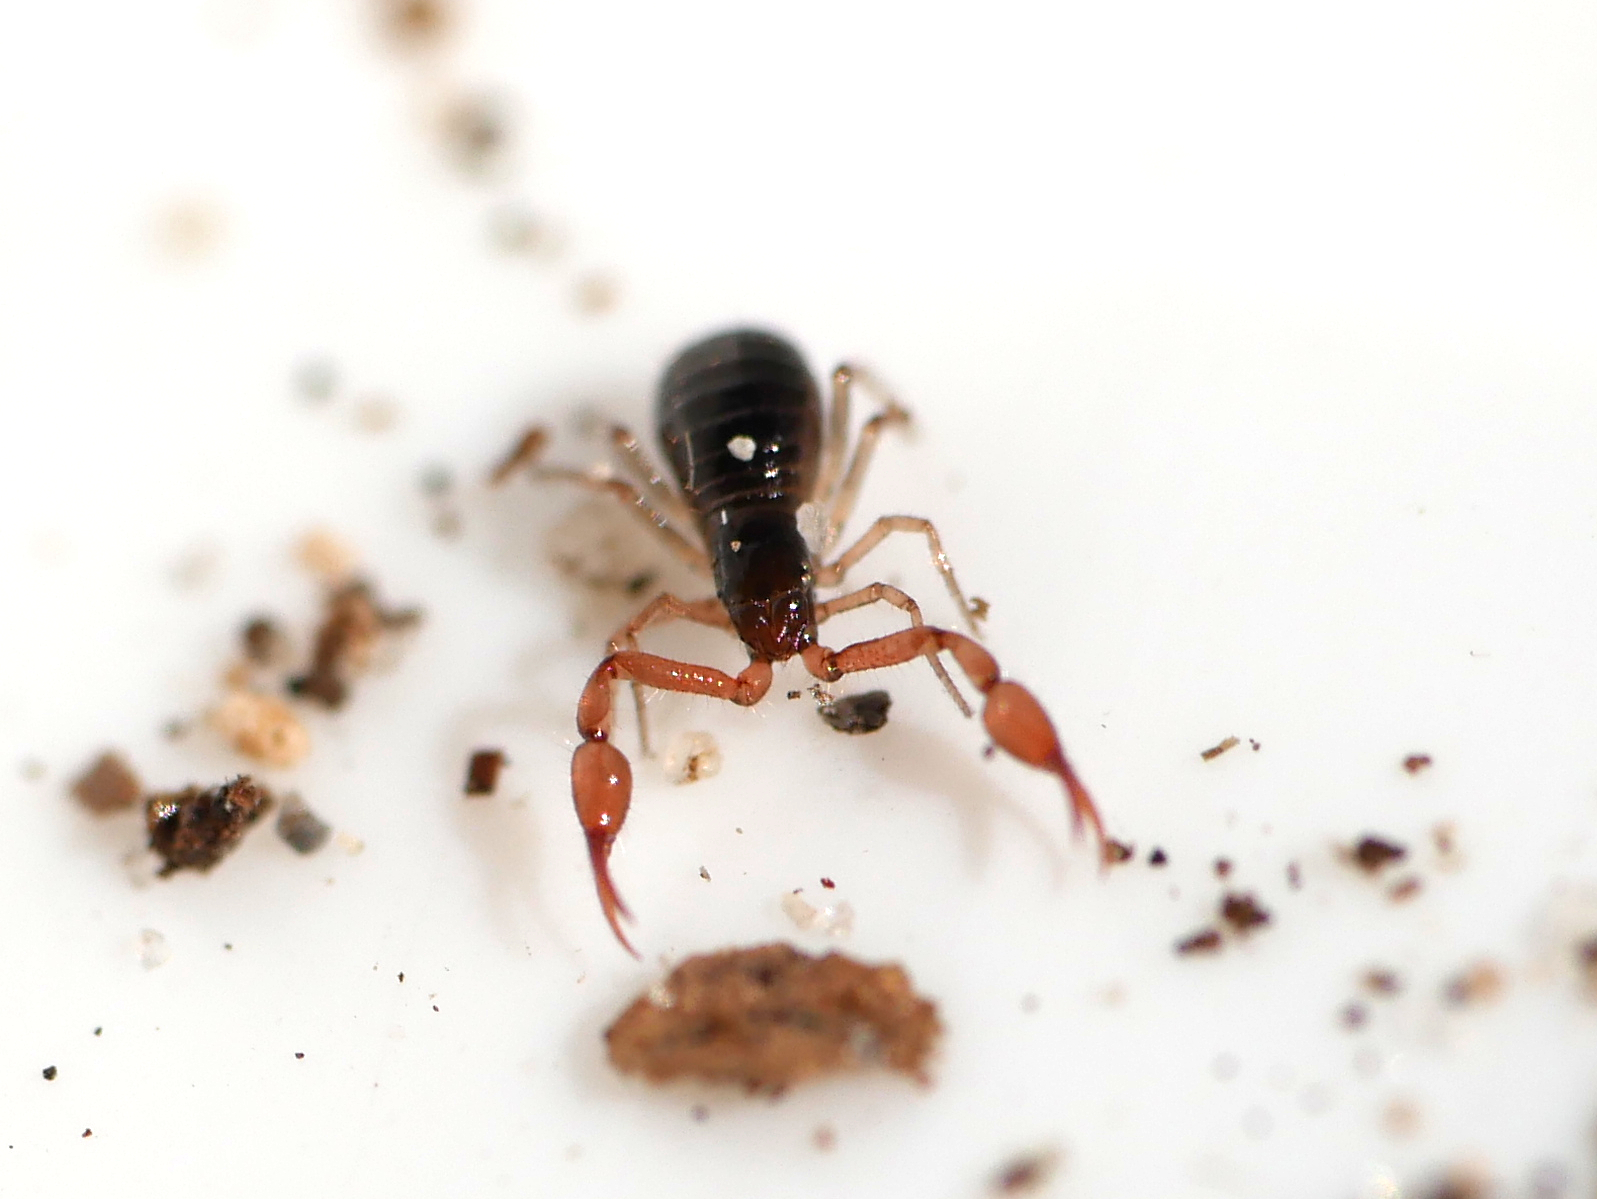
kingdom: Animalia
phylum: Arthropoda
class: Arachnida
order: Pseudoscorpiones
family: Neobisiidae
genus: Neobisium
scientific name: Neobisium carcinoides
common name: Common neobisid
